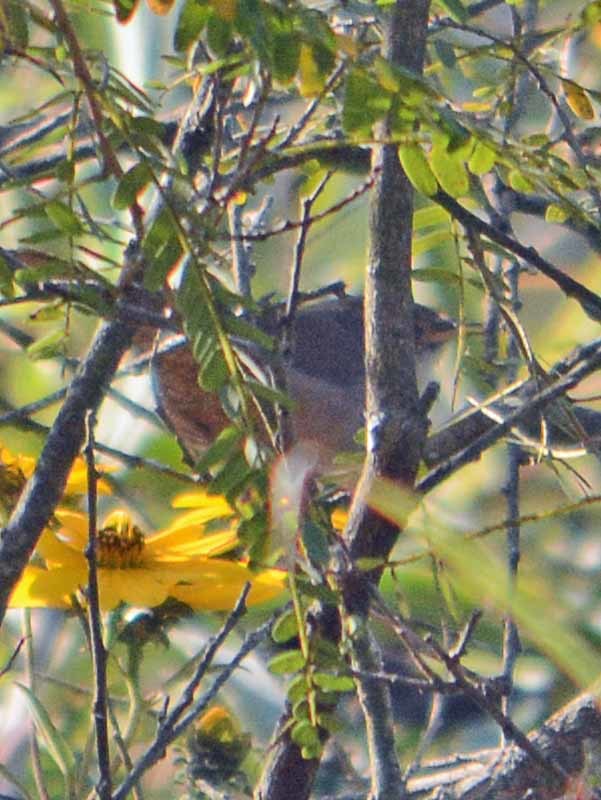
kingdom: Animalia
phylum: Chordata
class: Aves
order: Passeriformes
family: Troglodytidae
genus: Catherpes
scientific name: Catherpes mexicanus
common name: Canyon wren
